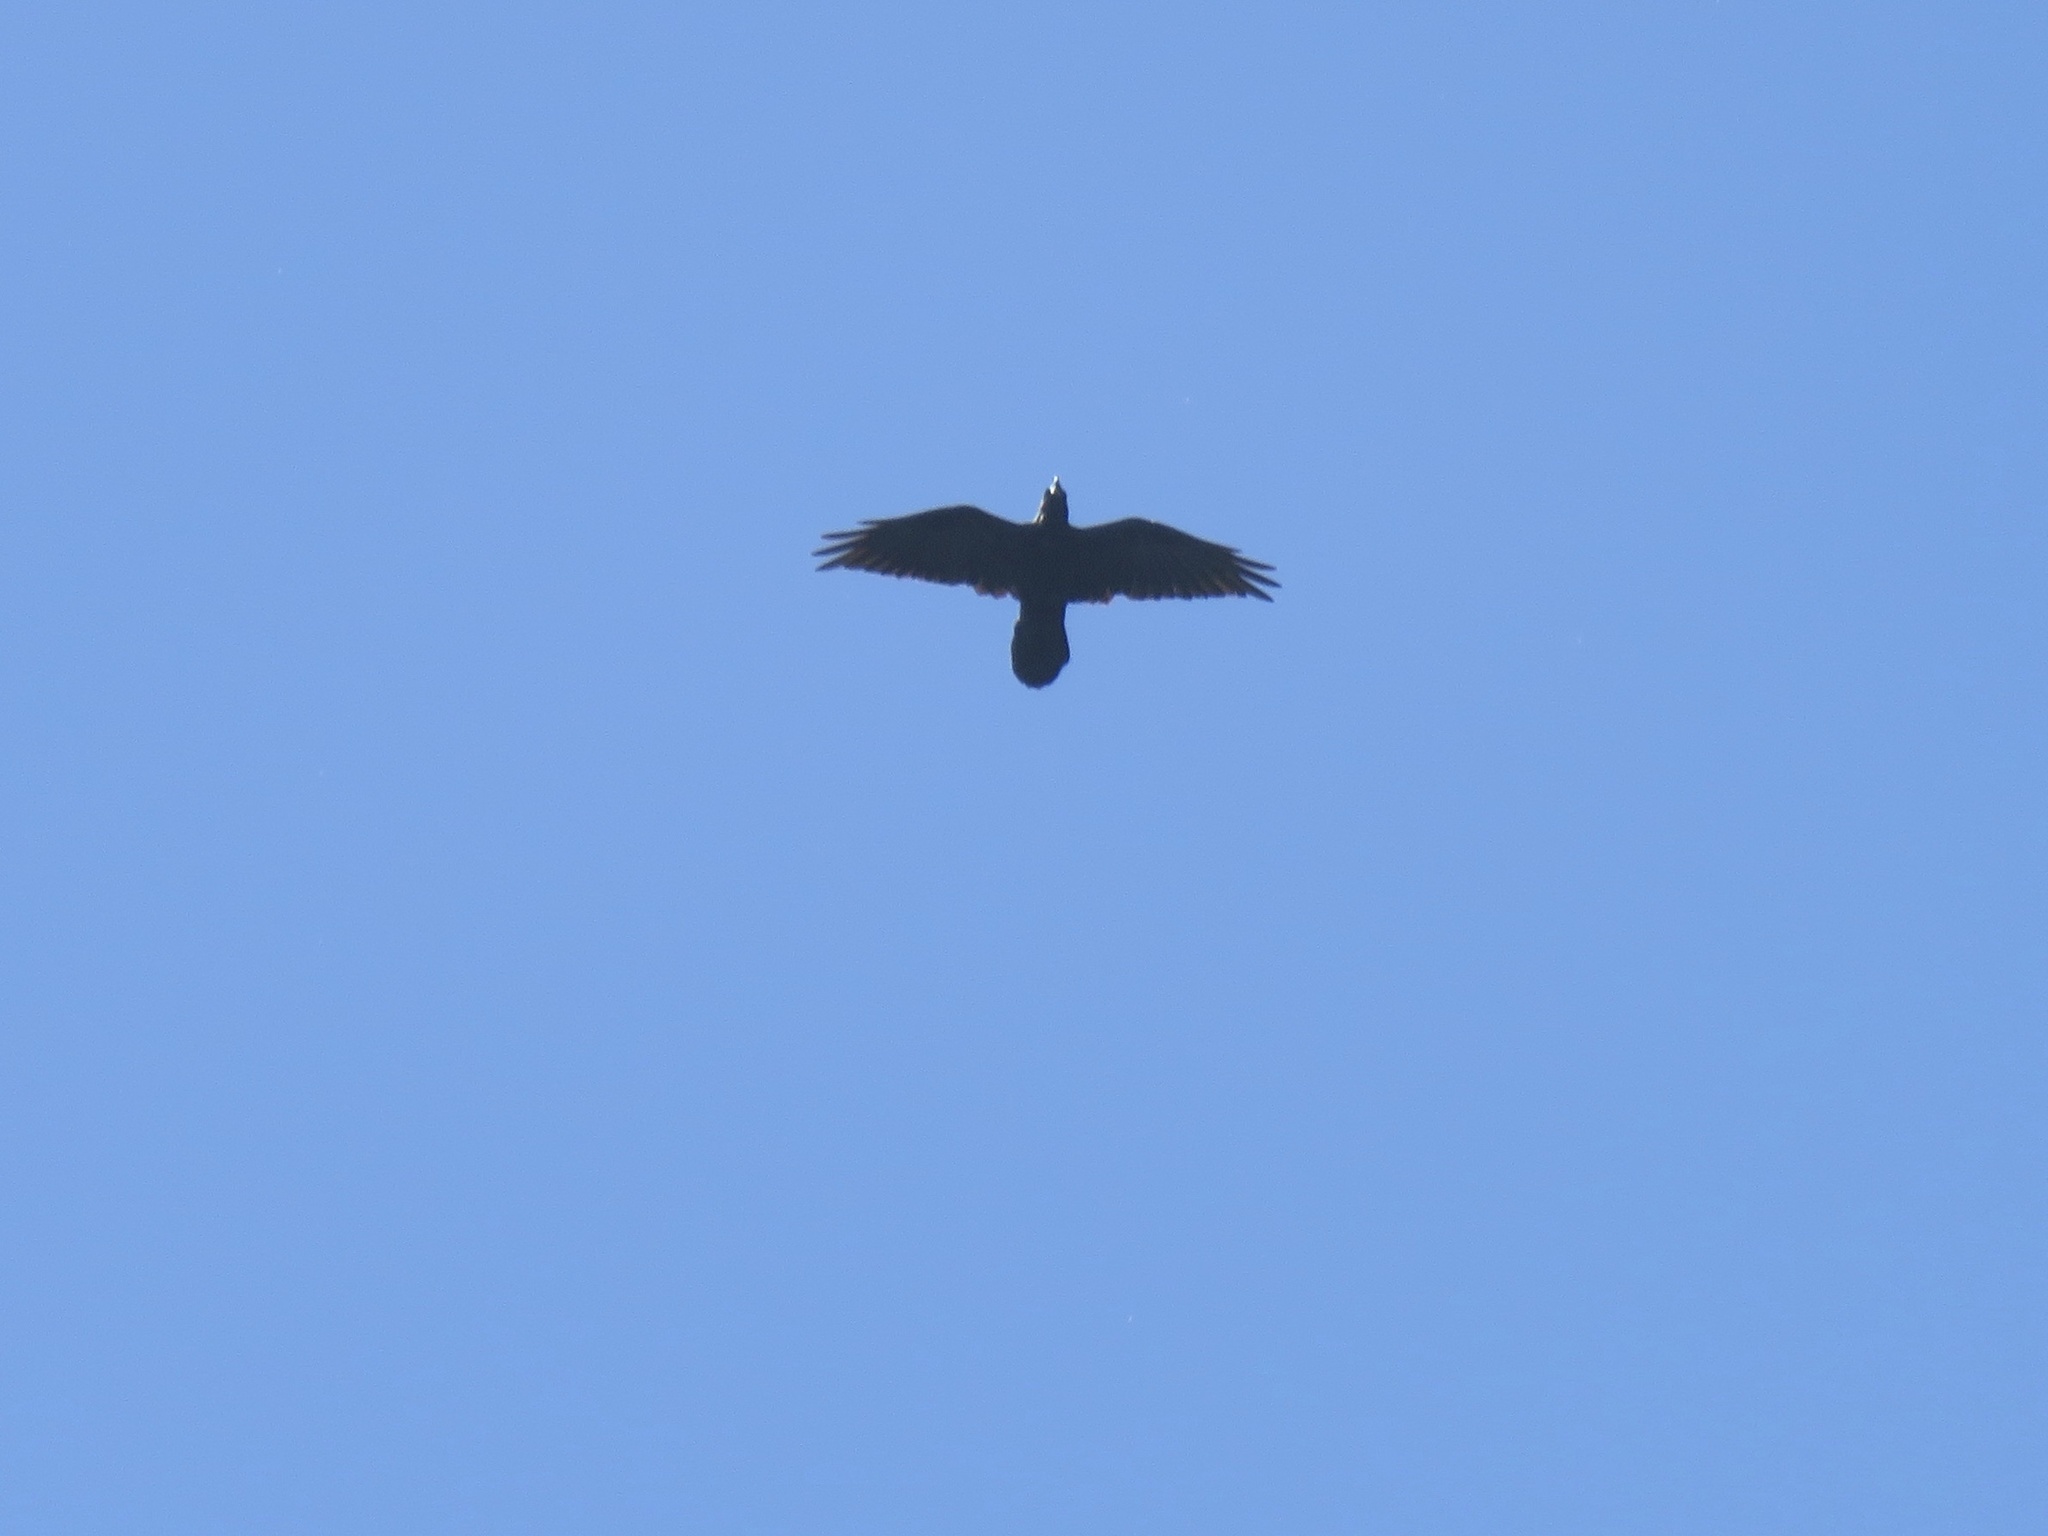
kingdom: Animalia
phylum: Chordata
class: Aves
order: Passeriformes
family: Corvidae
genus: Corvus
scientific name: Corvus corax
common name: Common raven
